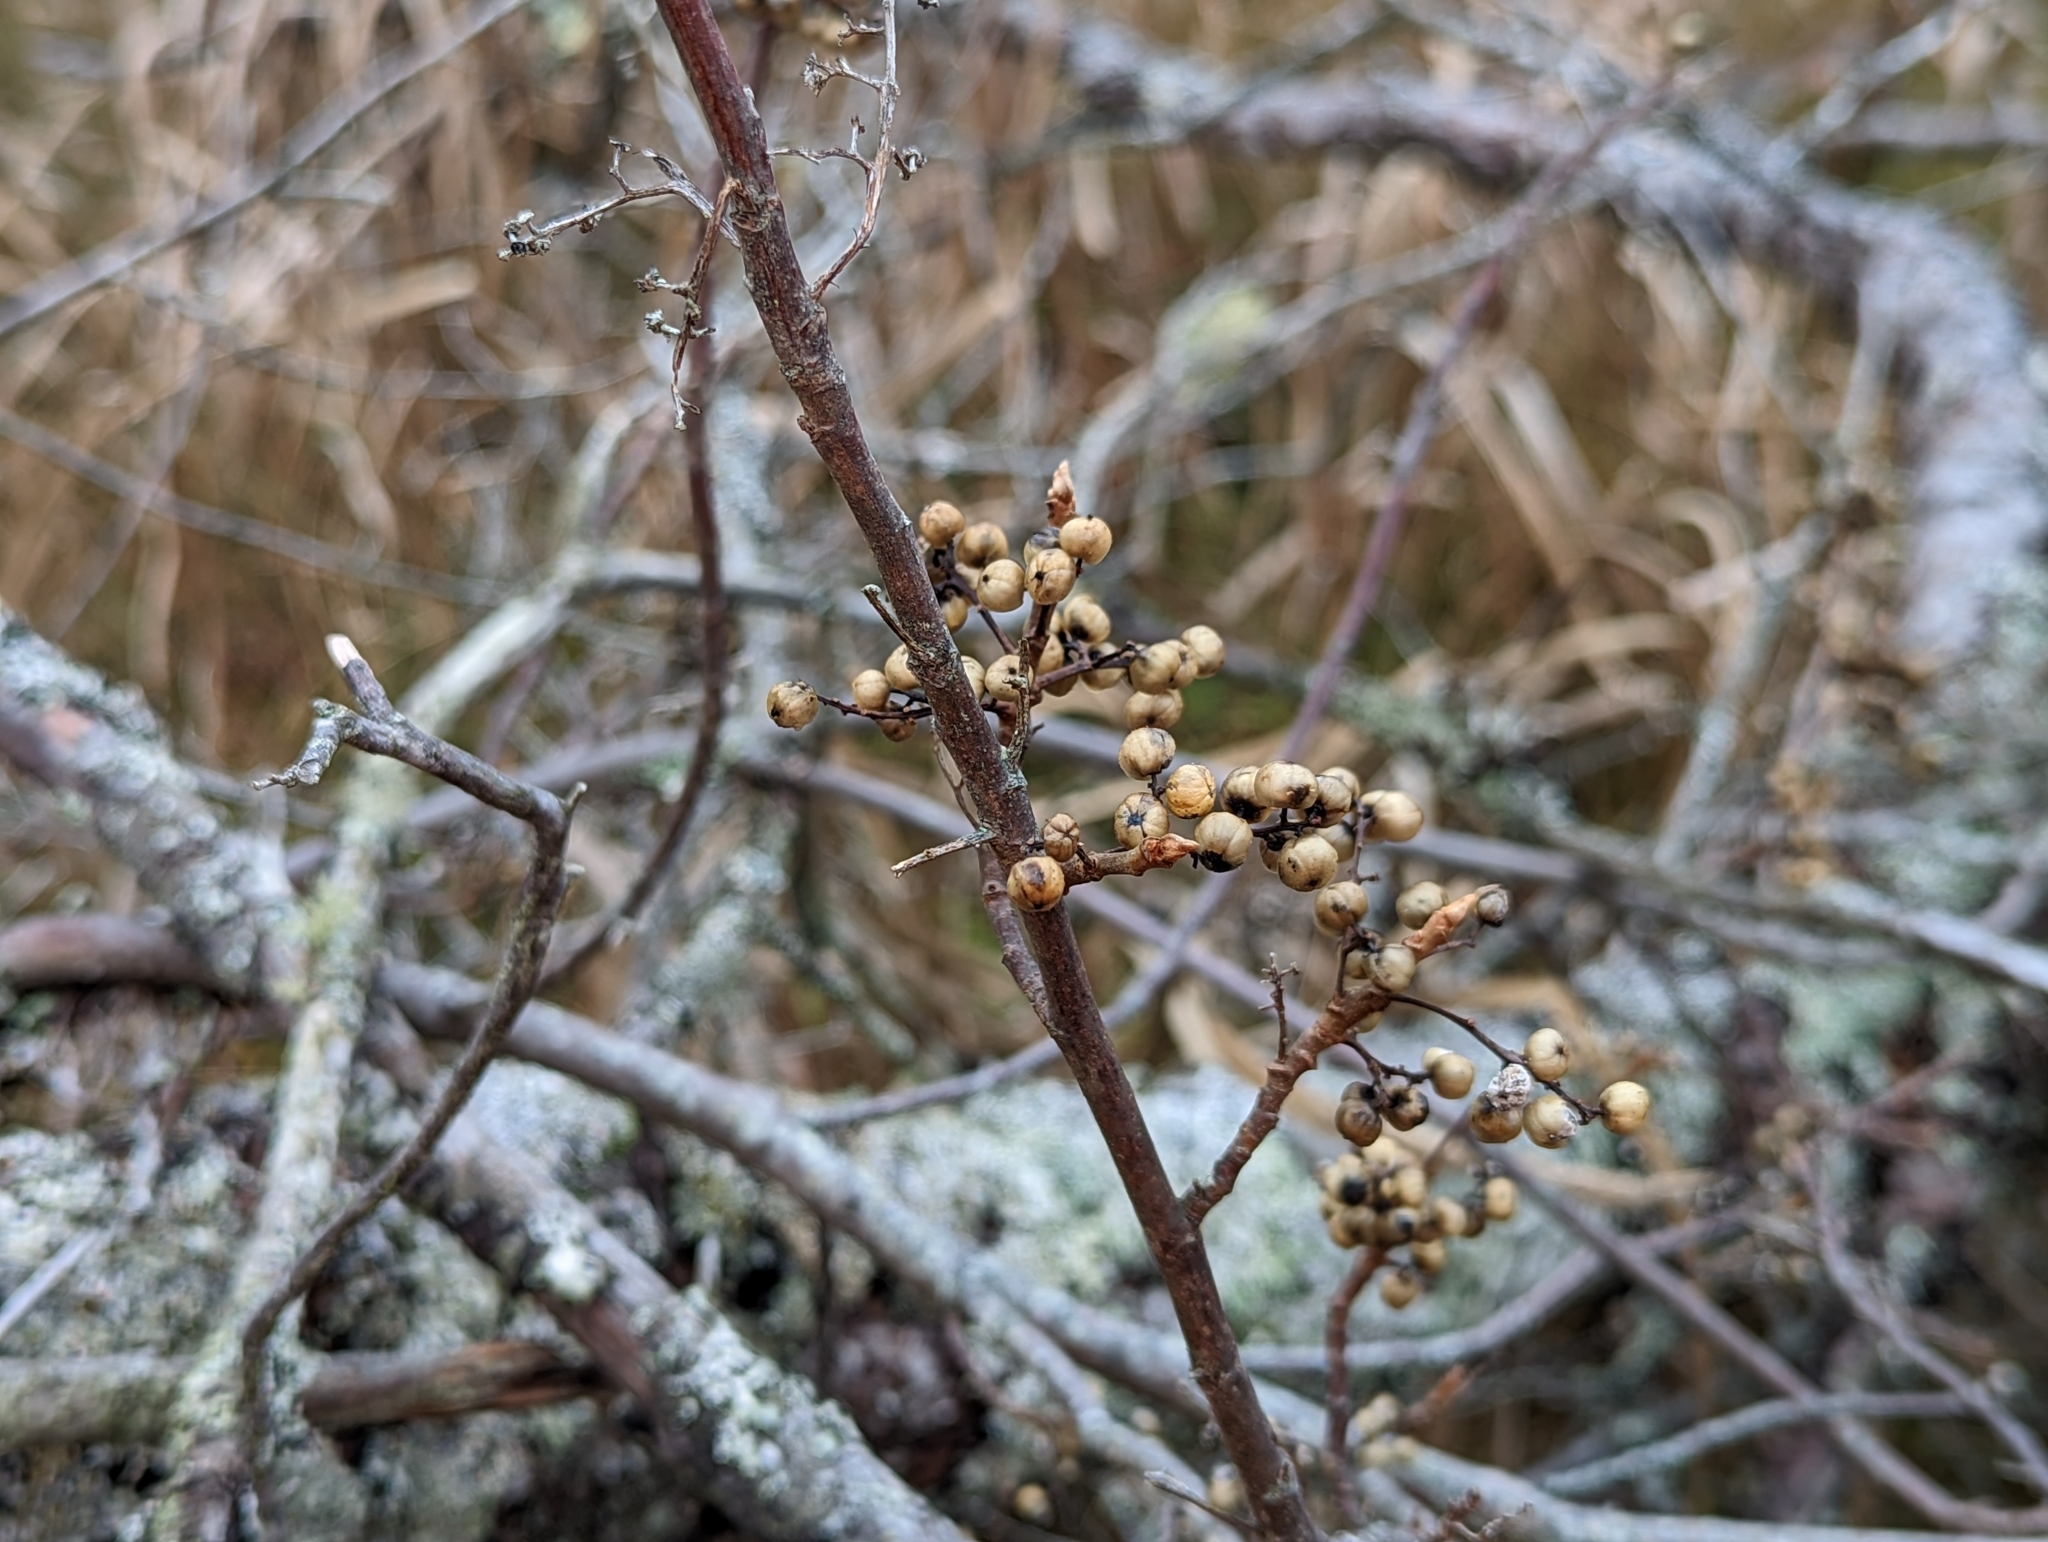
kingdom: Plantae
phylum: Tracheophyta
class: Magnoliopsida
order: Sapindales
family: Anacardiaceae
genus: Toxicodendron
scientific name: Toxicodendron radicans
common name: Poison ivy
